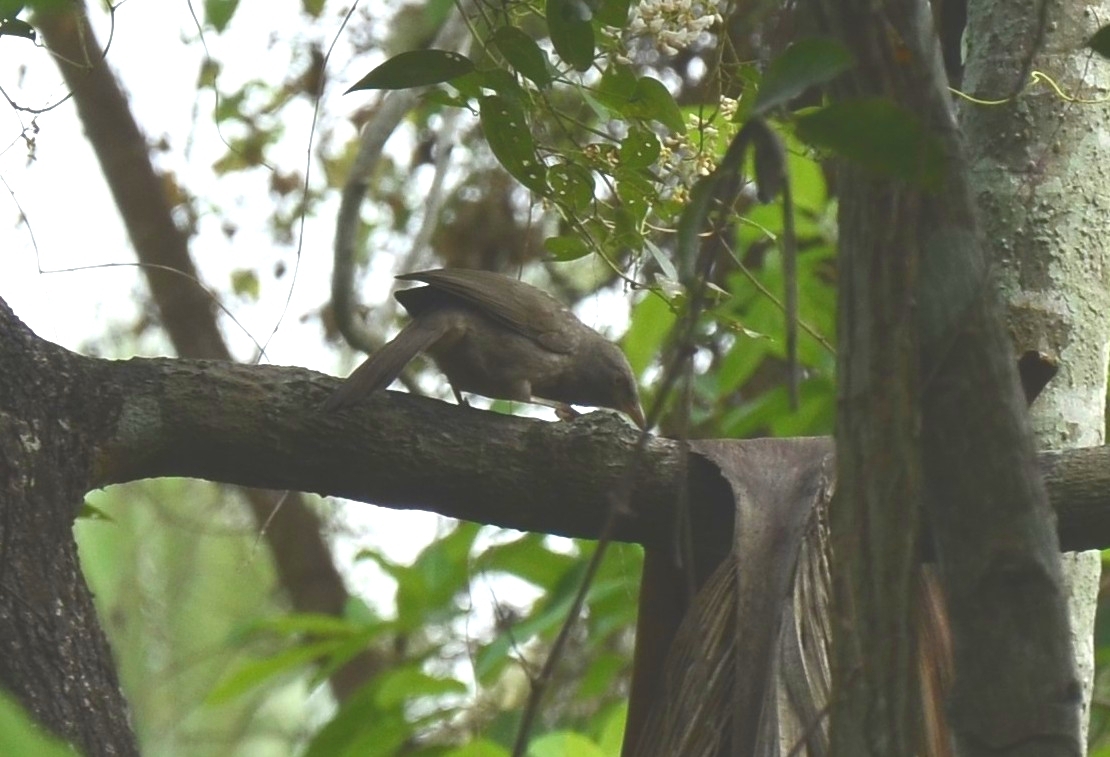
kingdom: Animalia
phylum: Chordata
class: Aves
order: Passeriformes
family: Leiothrichidae
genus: Turdoides
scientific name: Turdoides striata
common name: Jungle babbler
